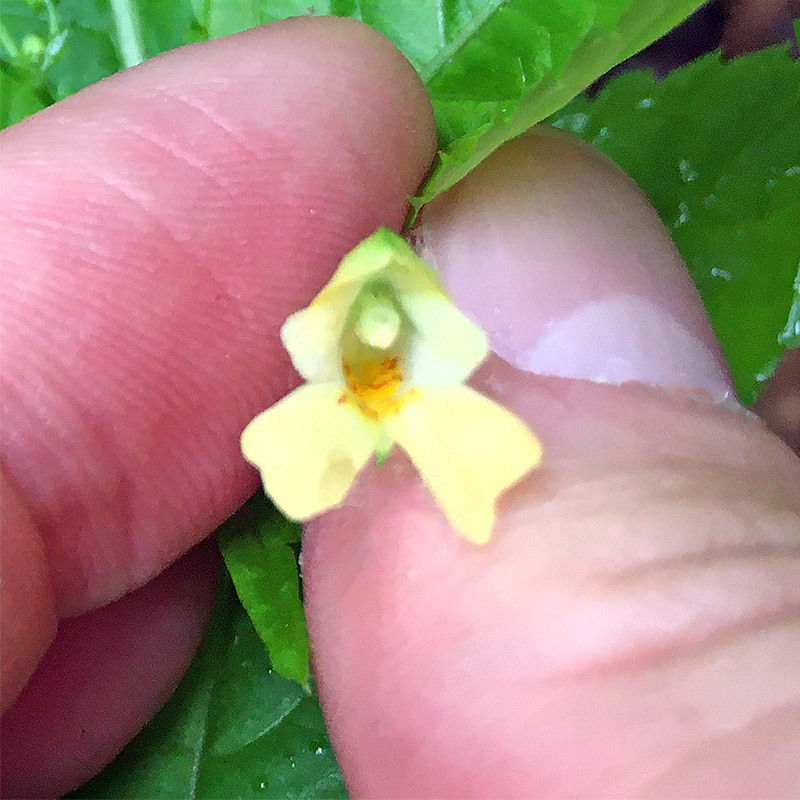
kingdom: Plantae
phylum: Tracheophyta
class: Magnoliopsida
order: Ericales
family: Balsaminaceae
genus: Impatiens
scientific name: Impatiens parviflora
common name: Small balsam
